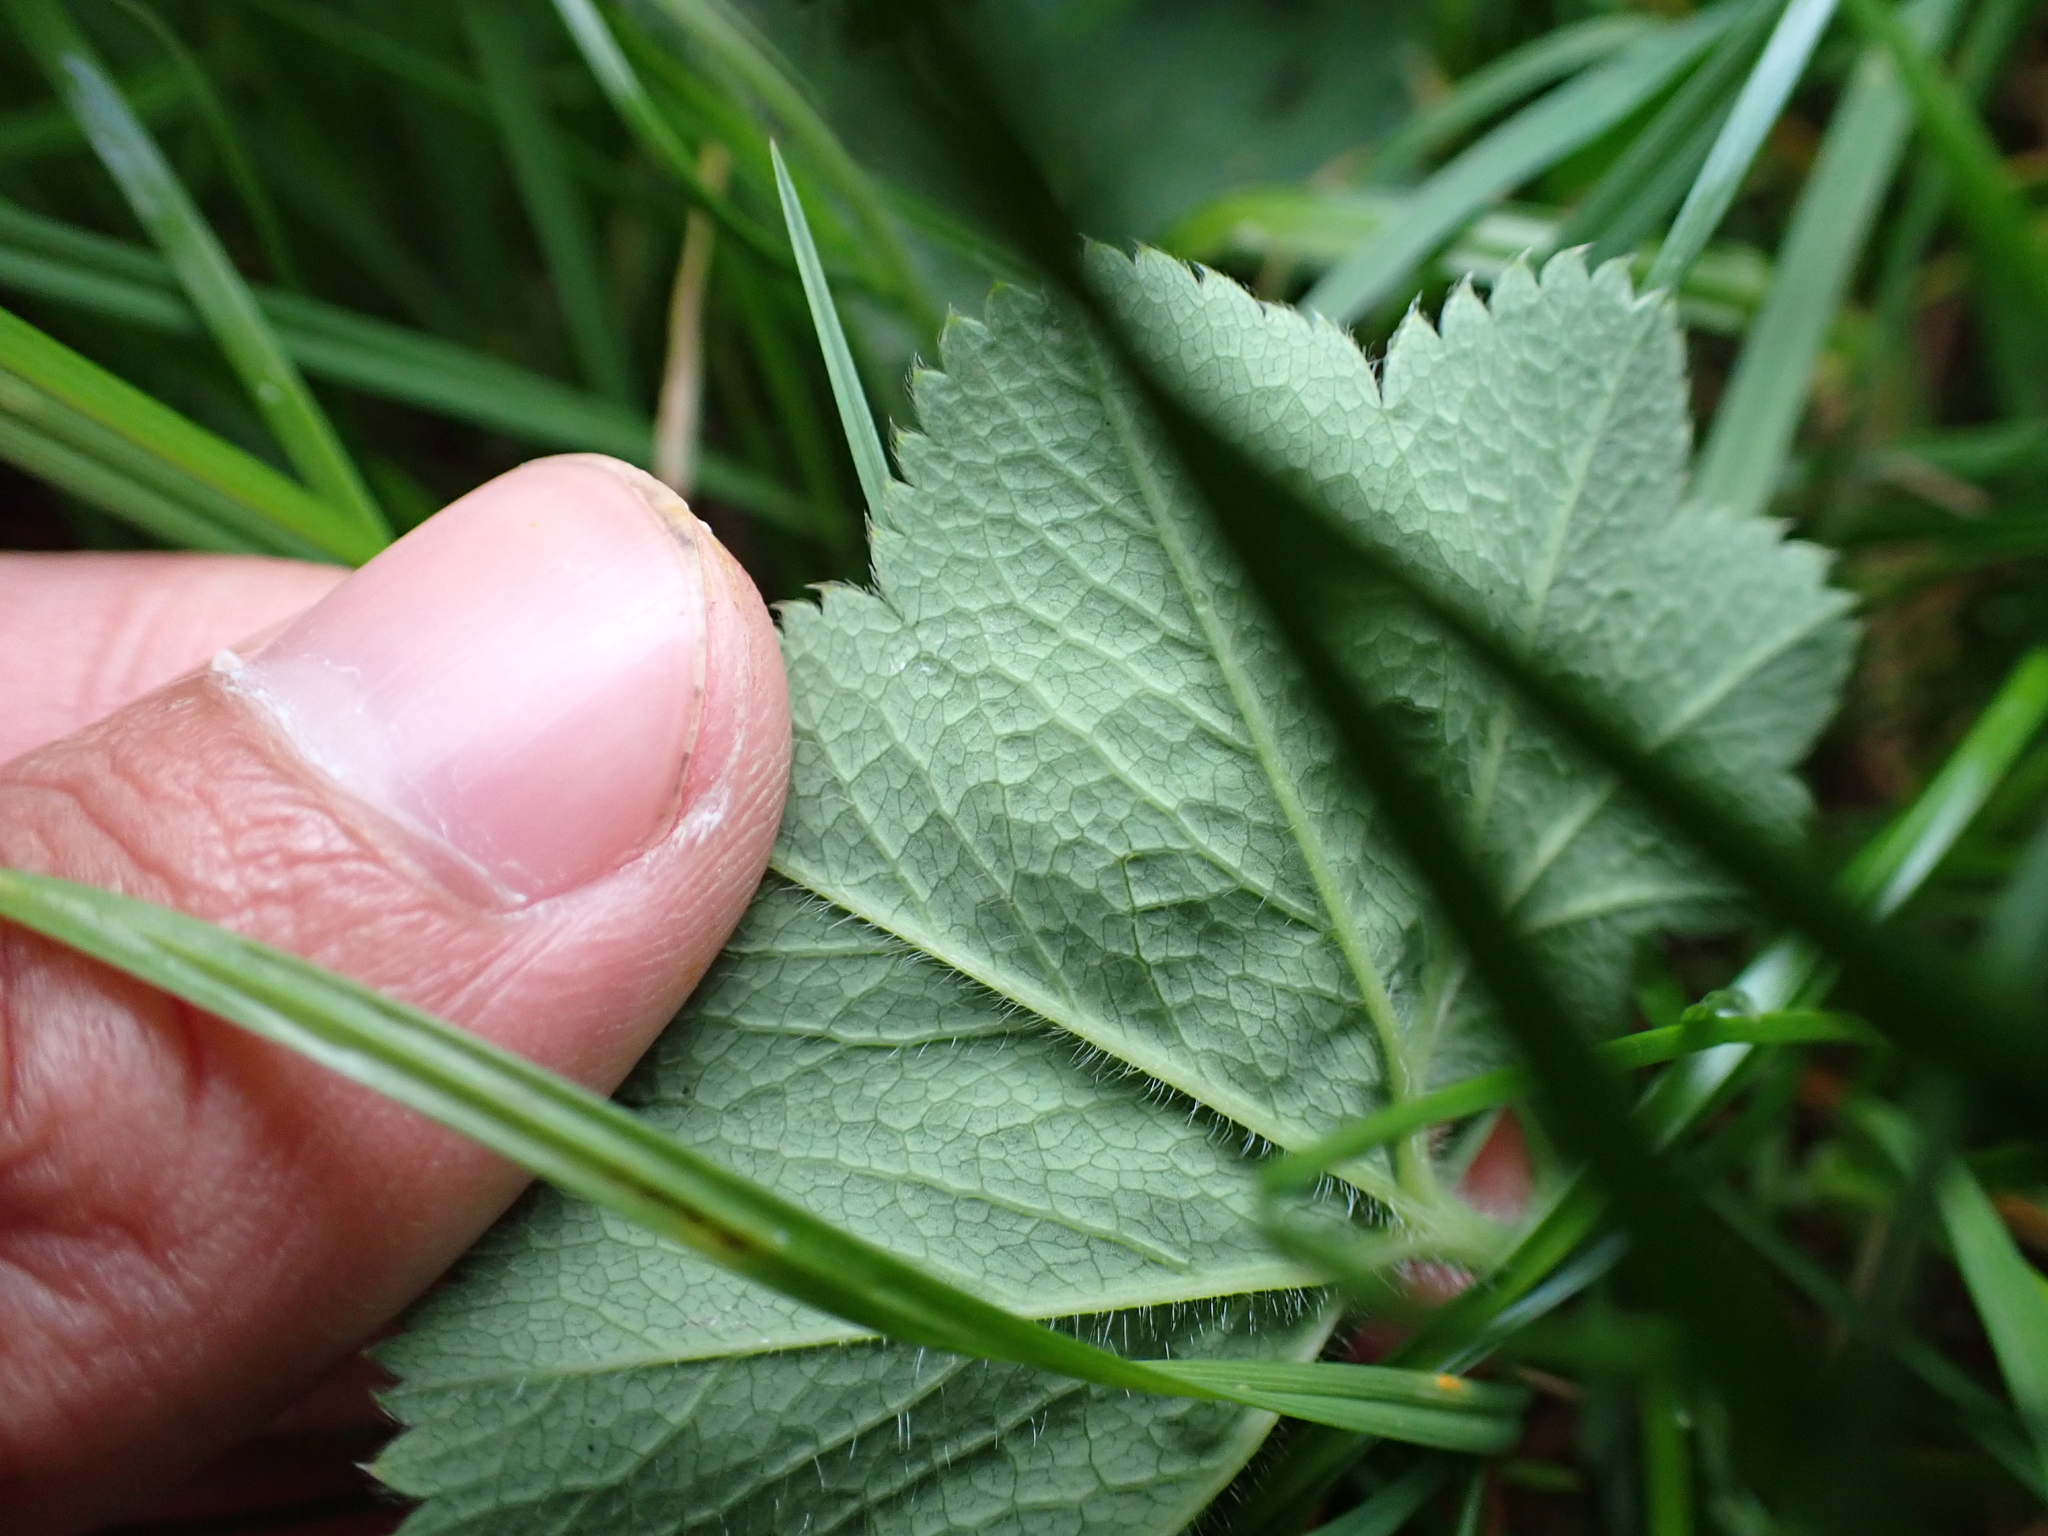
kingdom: Plantae
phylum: Tracheophyta
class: Magnoliopsida
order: Rosales
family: Rosaceae
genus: Alchemilla
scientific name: Alchemilla crinita
